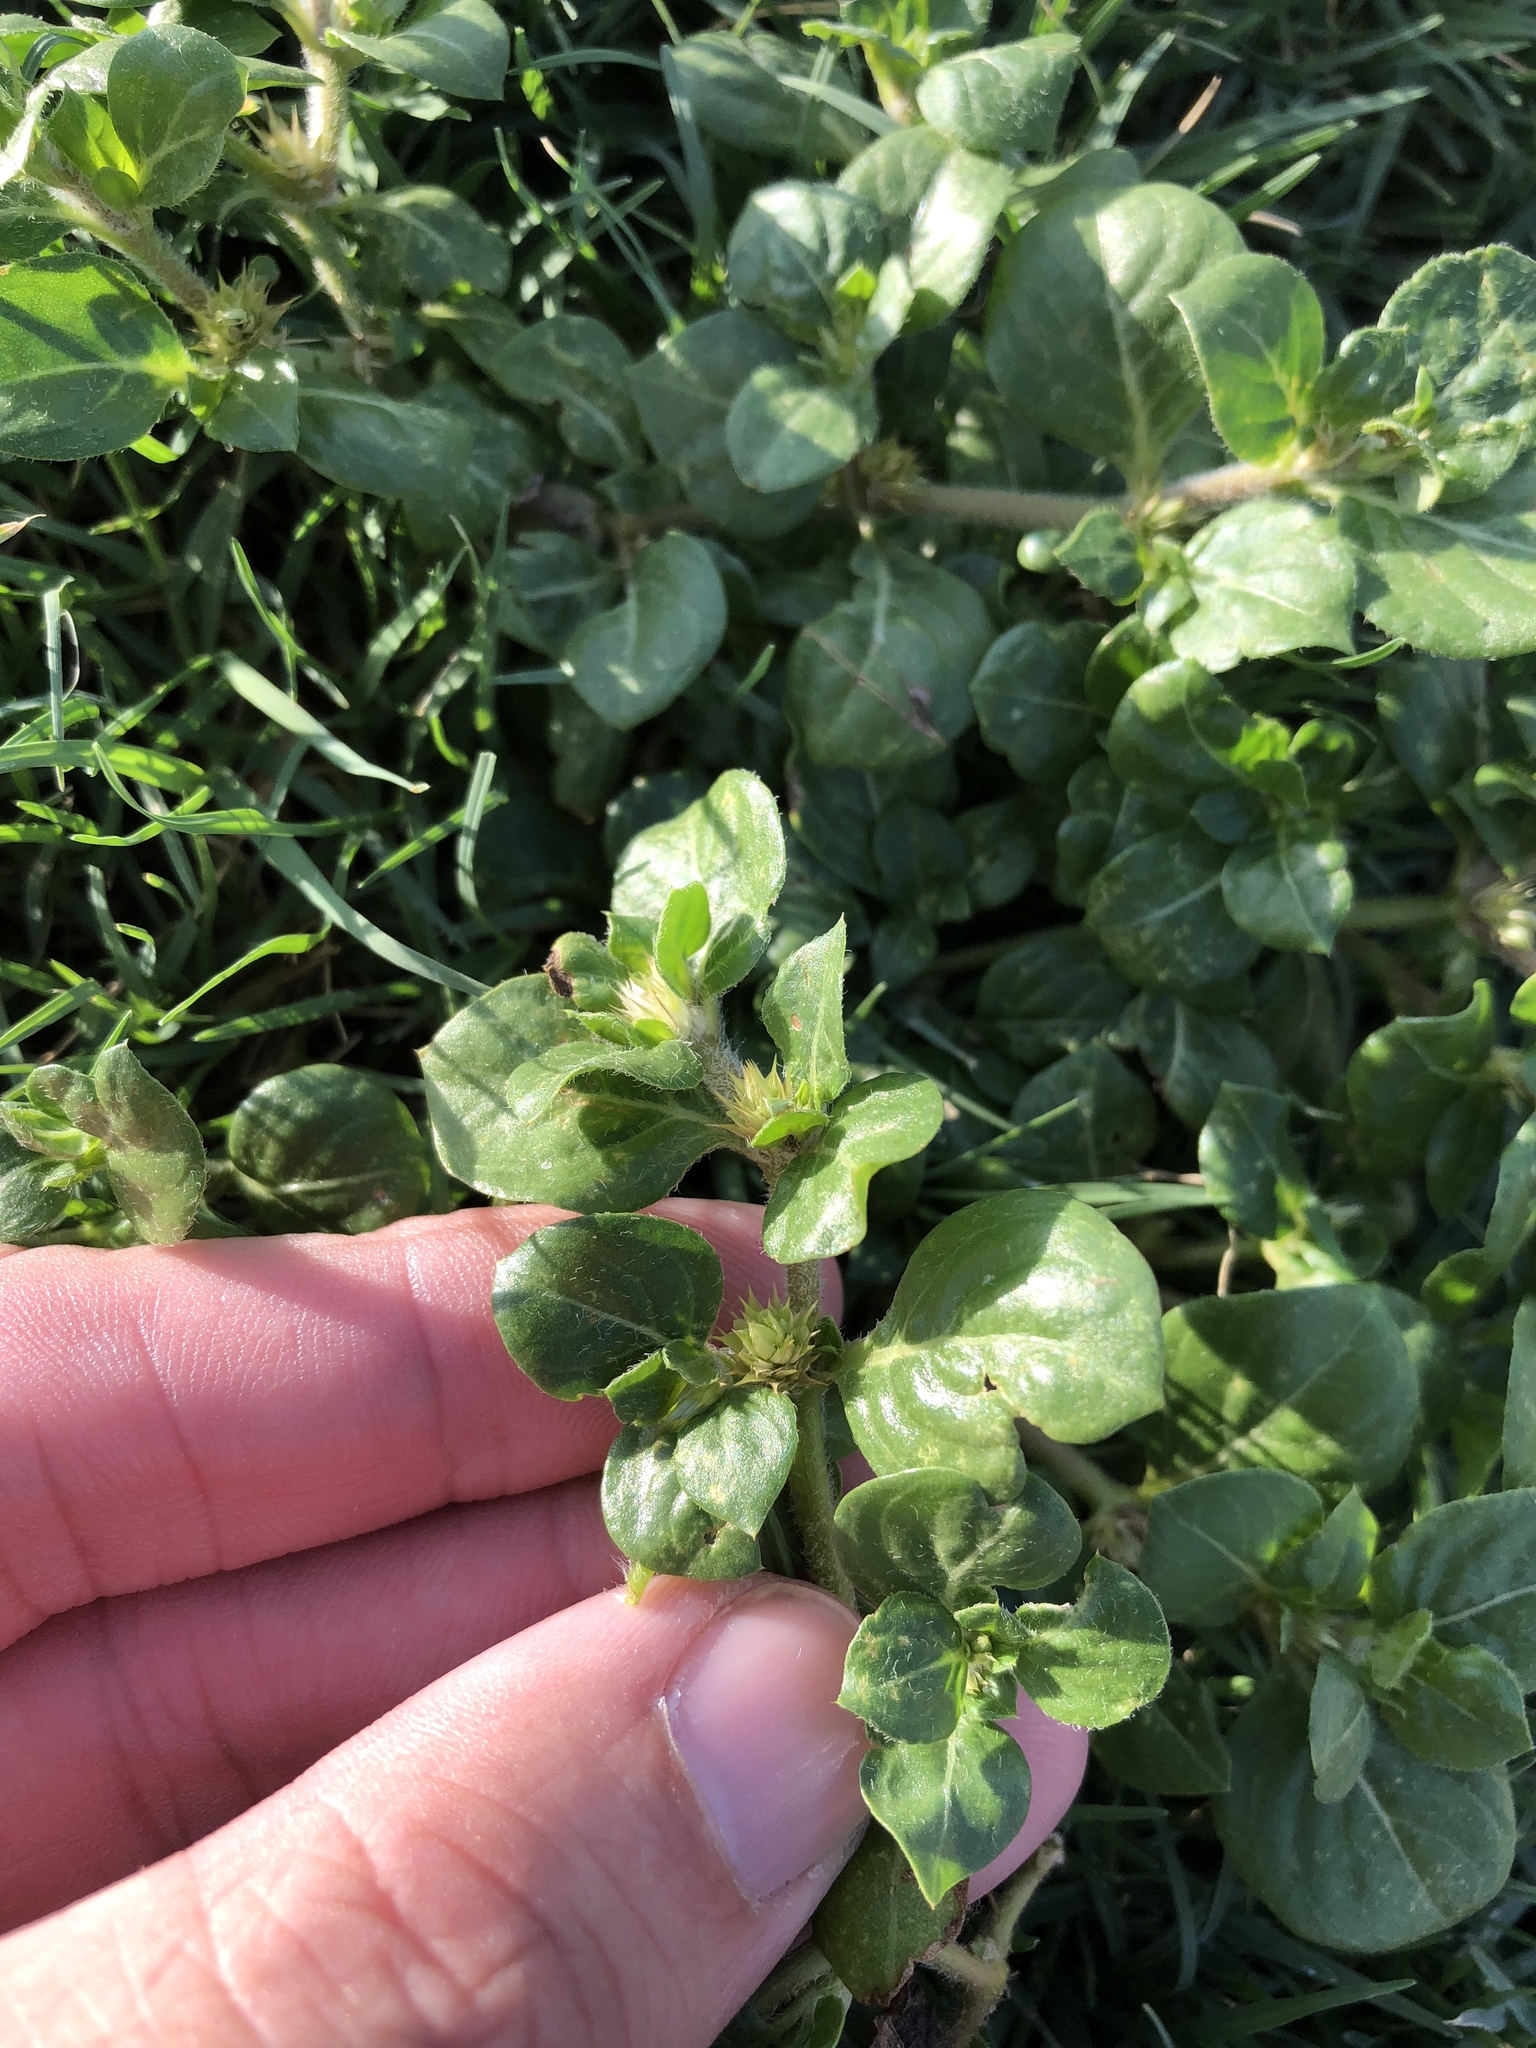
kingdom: Plantae
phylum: Tracheophyta
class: Magnoliopsida
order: Caryophyllales
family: Amaranthaceae
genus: Alternanthera
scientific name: Alternanthera pungens
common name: Khakiweed
